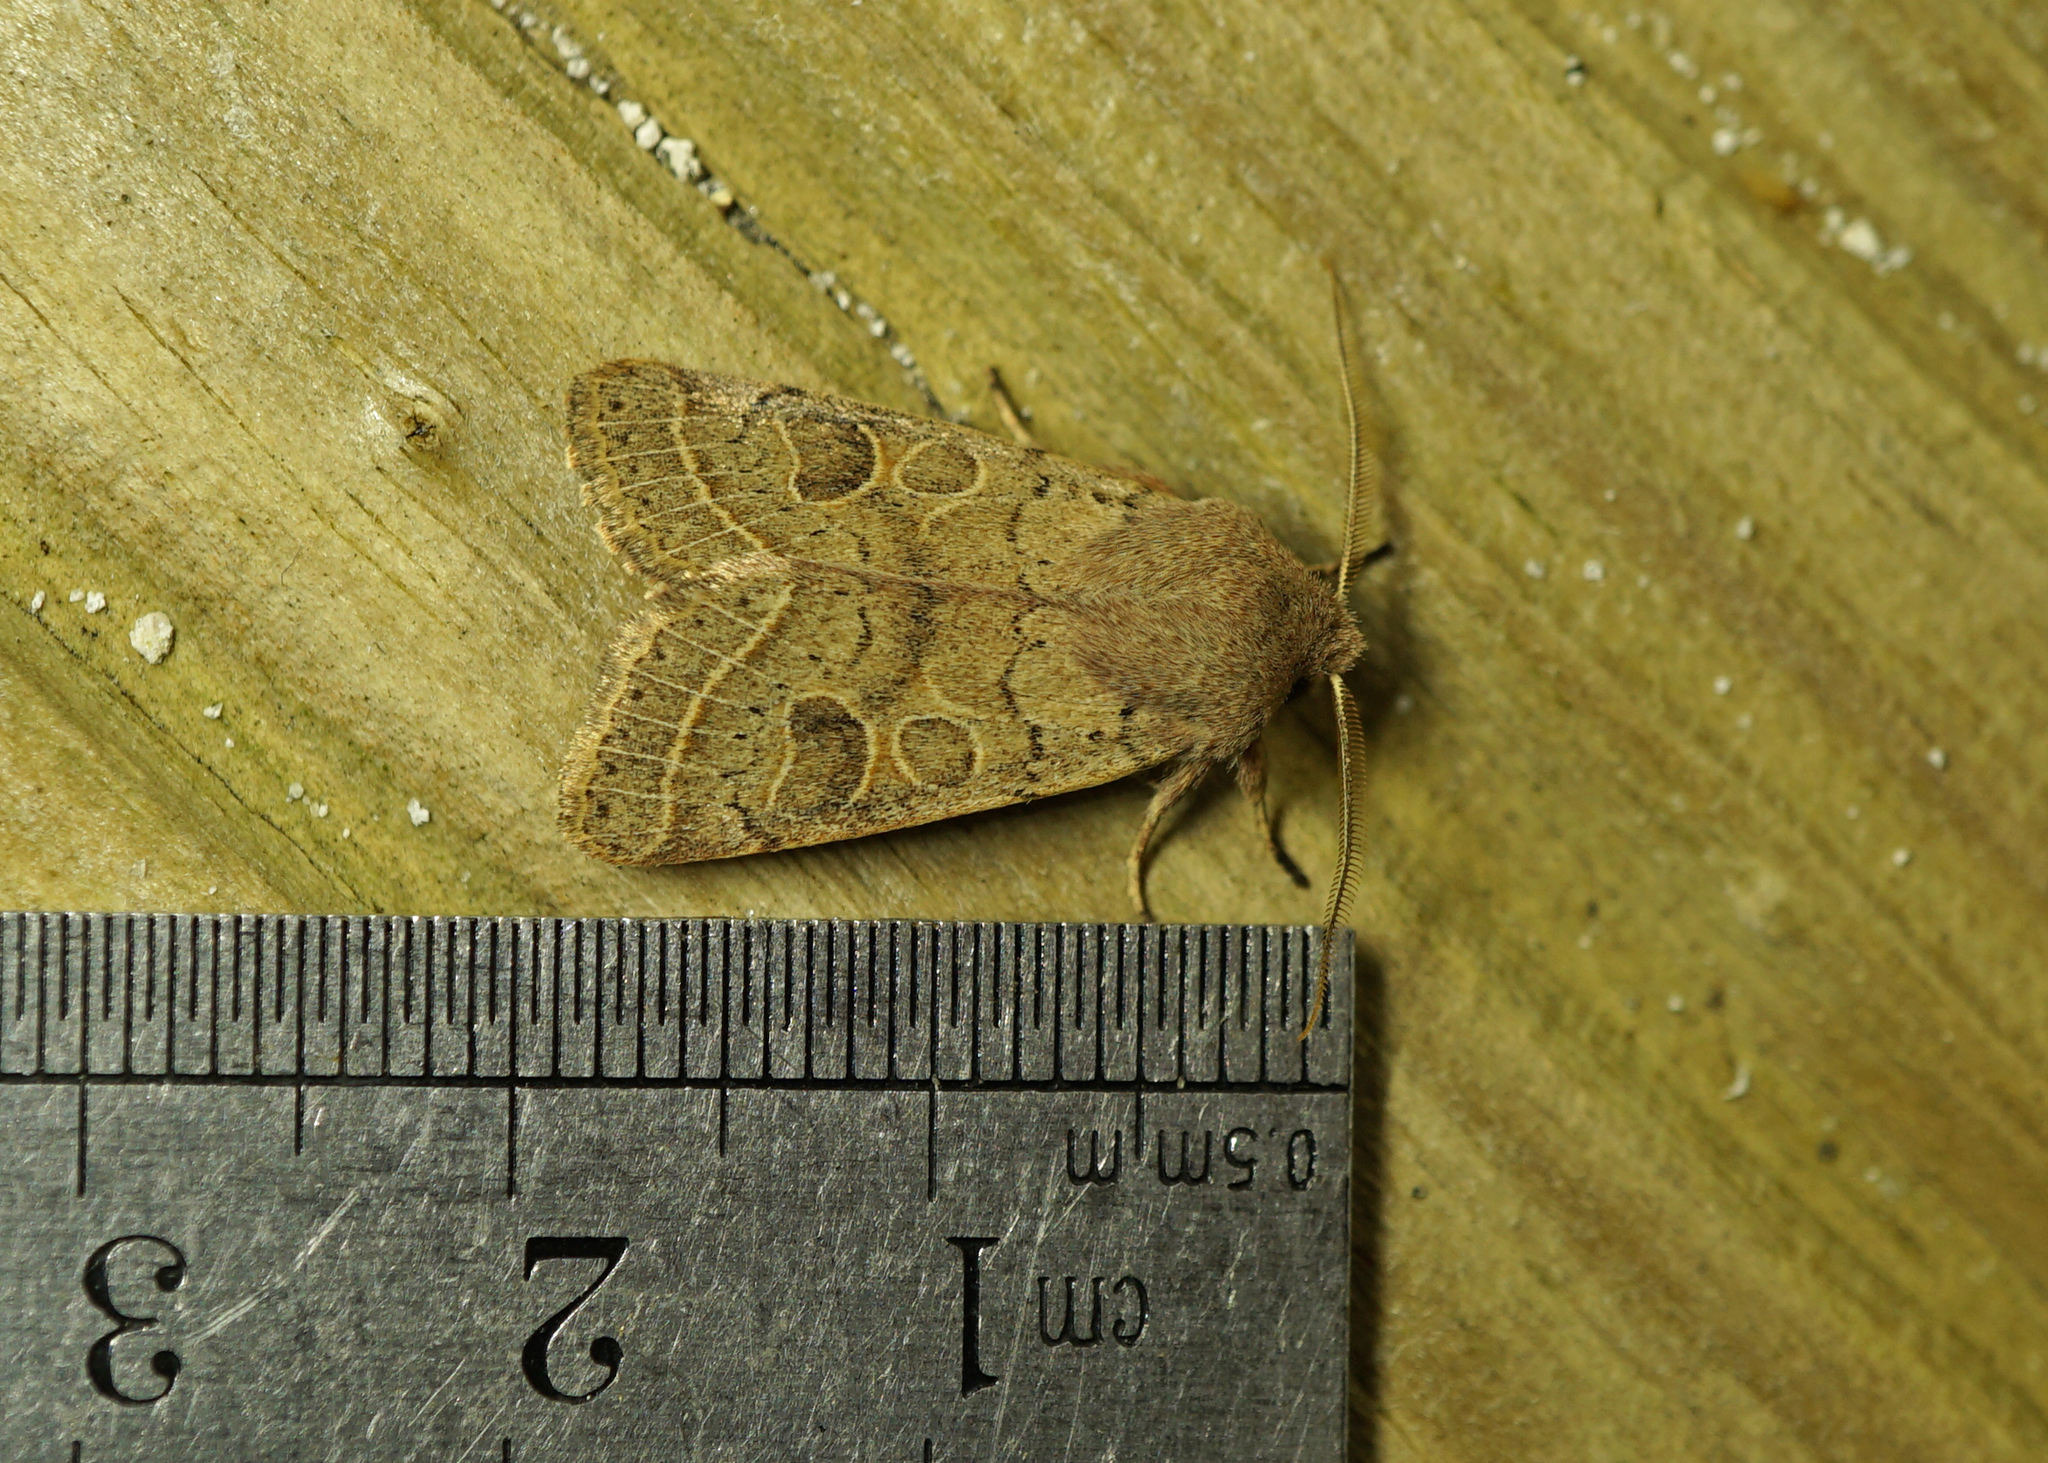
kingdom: Animalia
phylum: Arthropoda
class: Insecta
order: Lepidoptera
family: Noctuidae
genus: Orthosia
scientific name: Orthosia cerasi
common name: Common quaker
